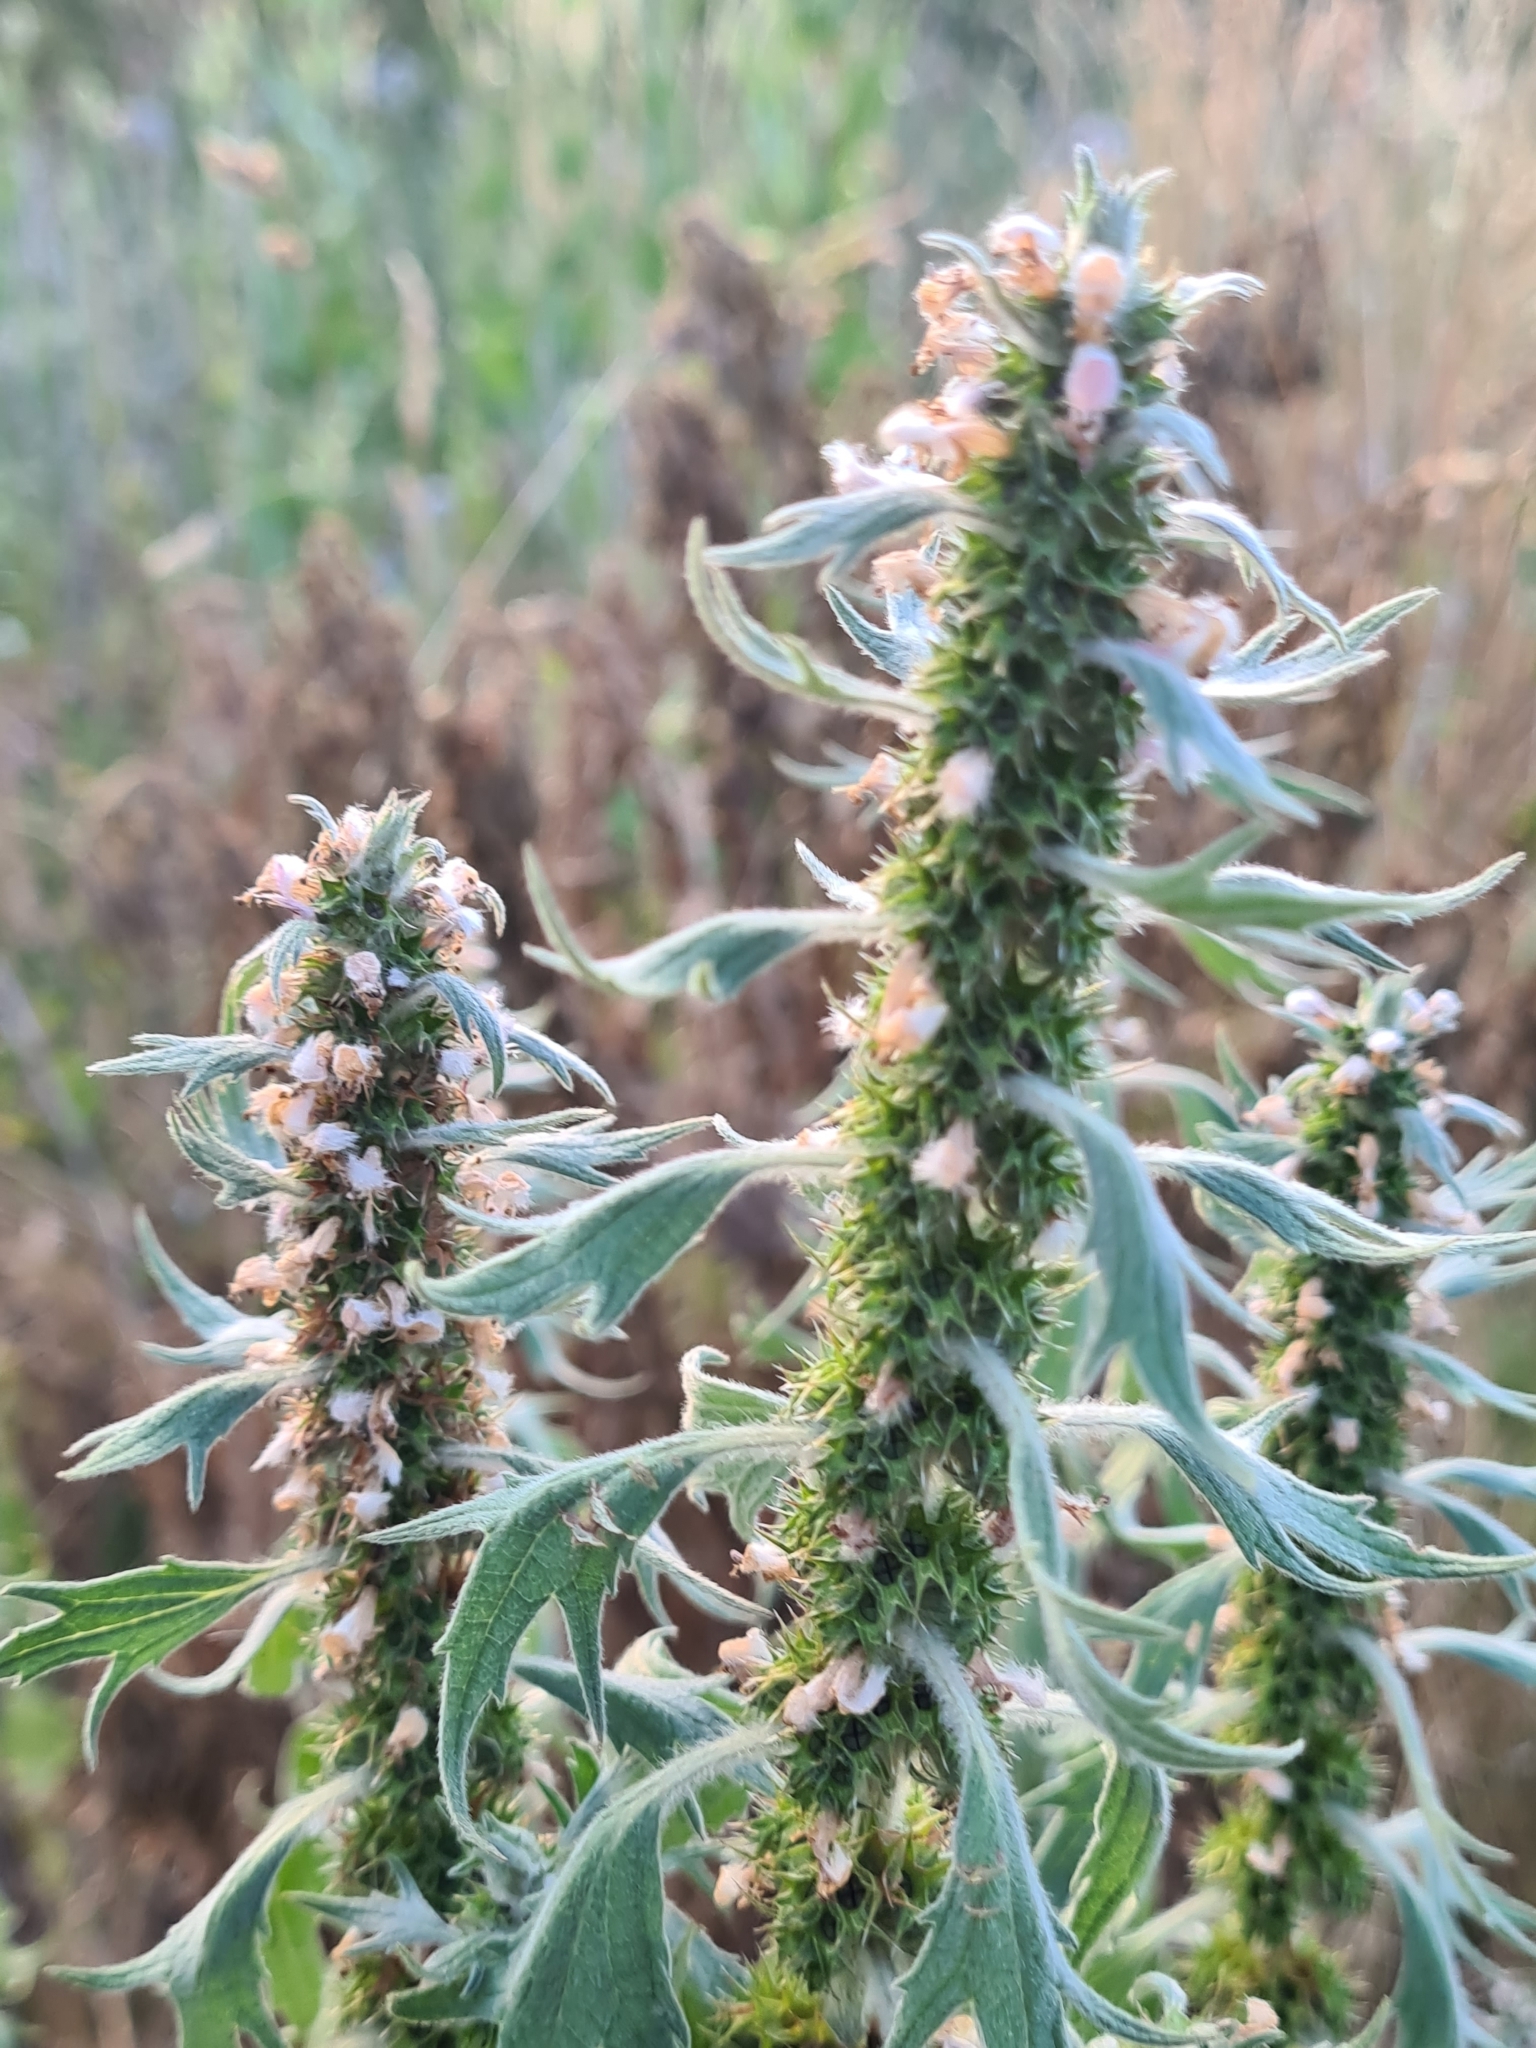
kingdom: Plantae
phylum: Tracheophyta
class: Magnoliopsida
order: Lamiales
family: Lamiaceae
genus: Leonurus
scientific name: Leonurus quinquelobatus
